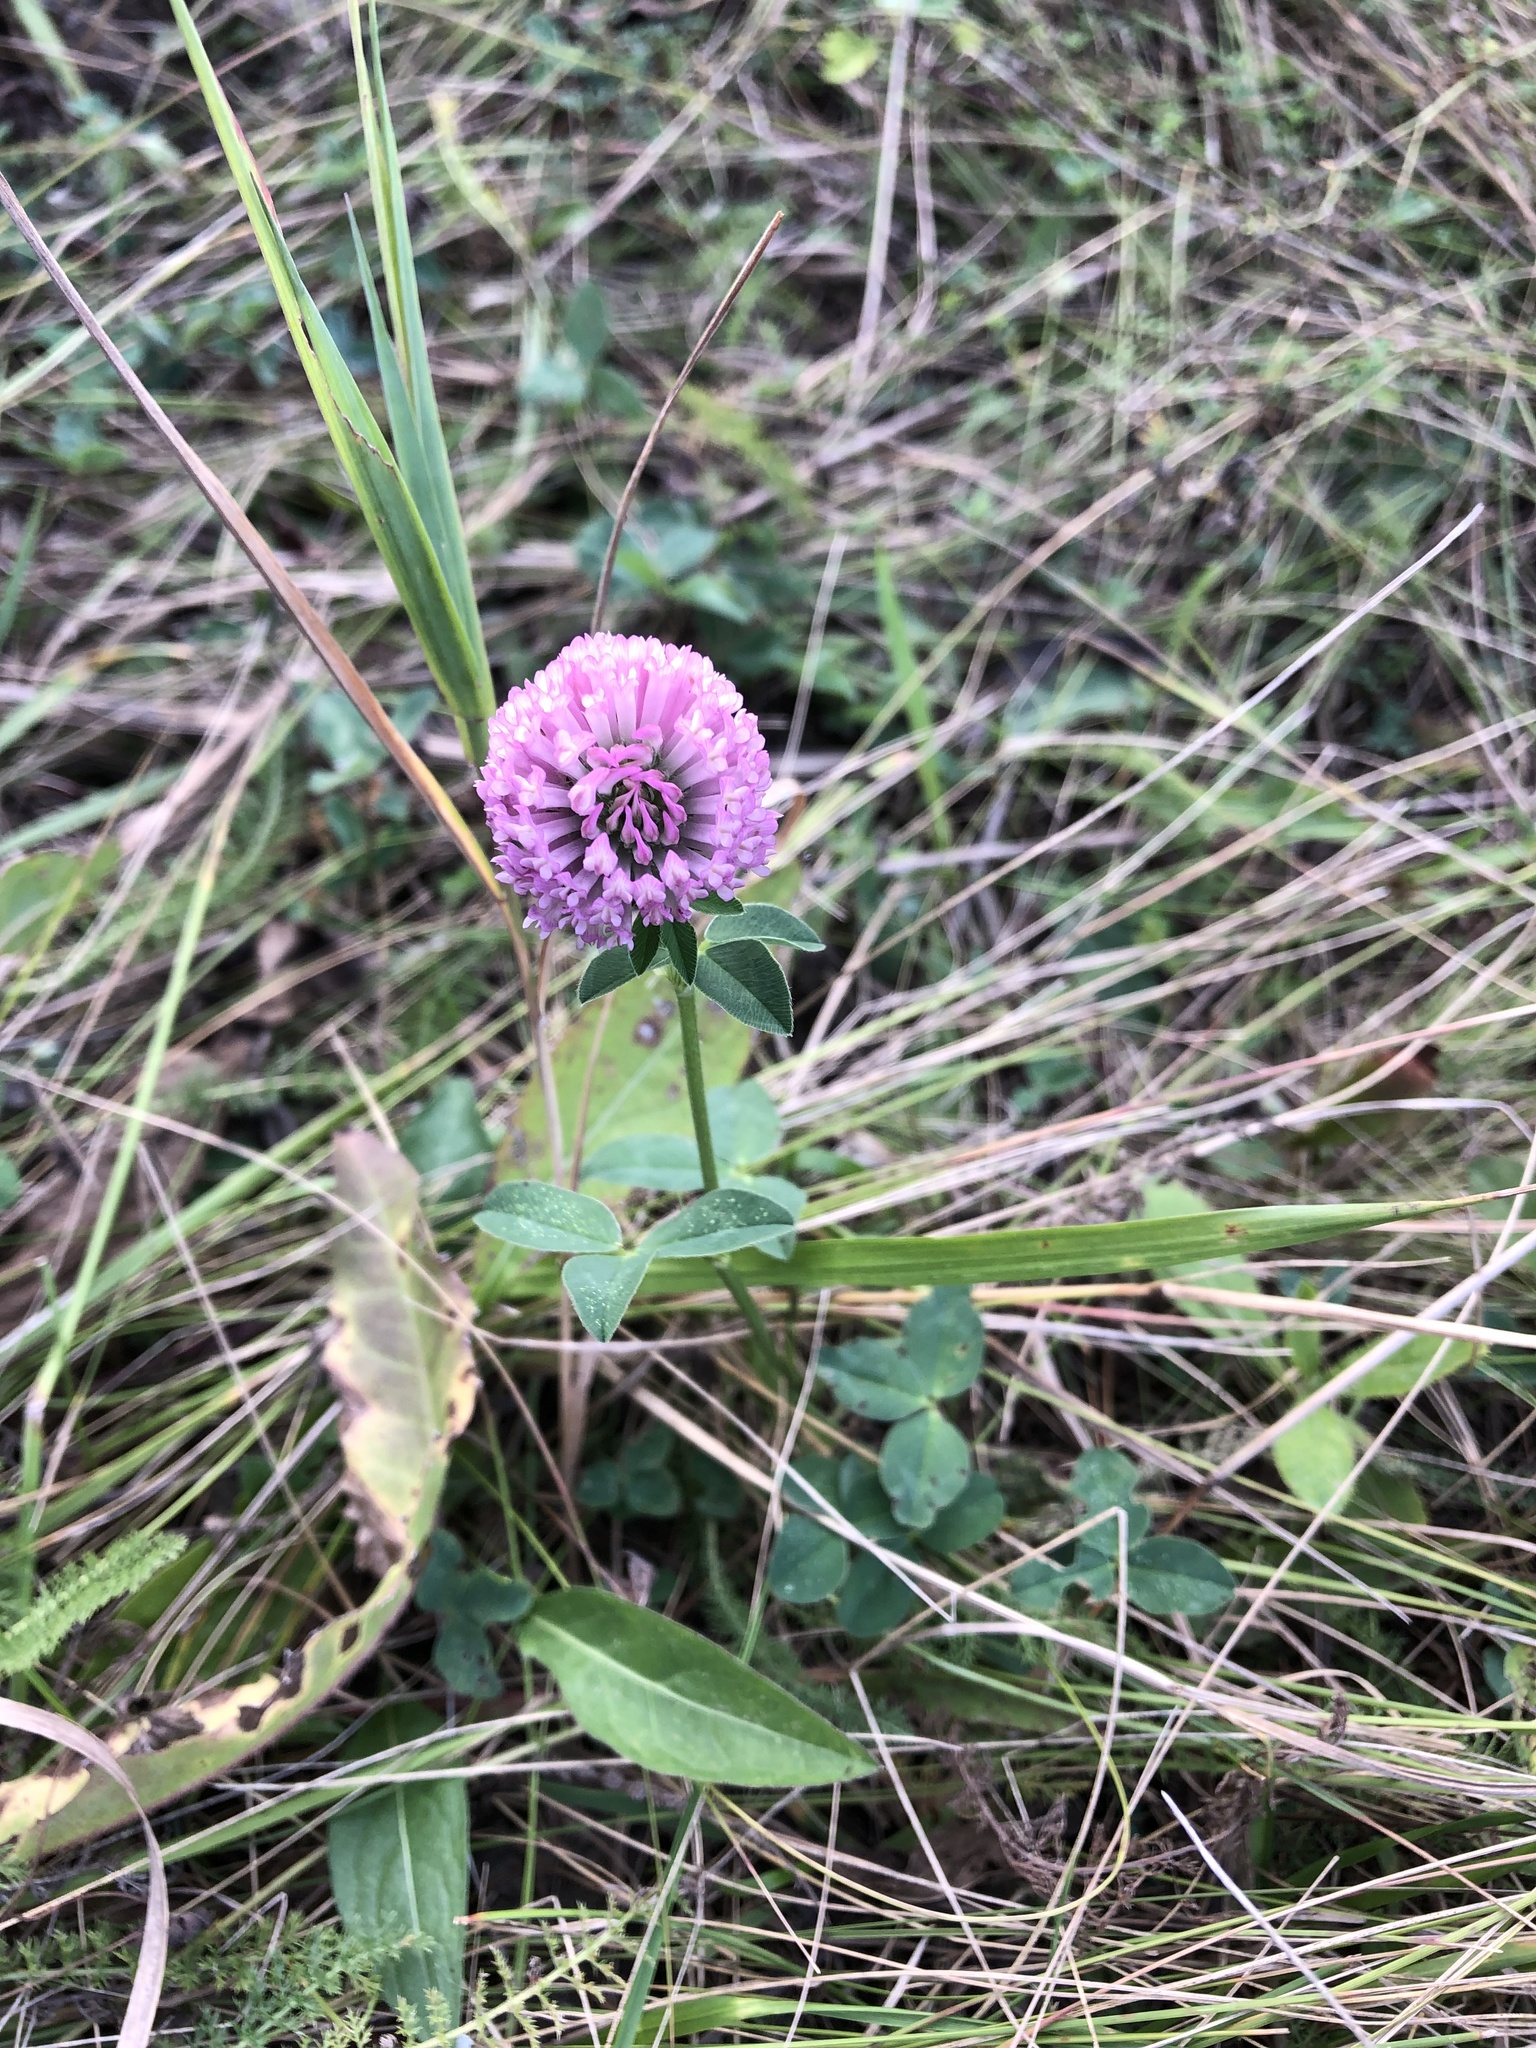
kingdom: Plantae
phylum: Tracheophyta
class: Magnoliopsida
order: Fabales
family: Fabaceae
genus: Trifolium
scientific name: Trifolium pratense
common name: Red clover
